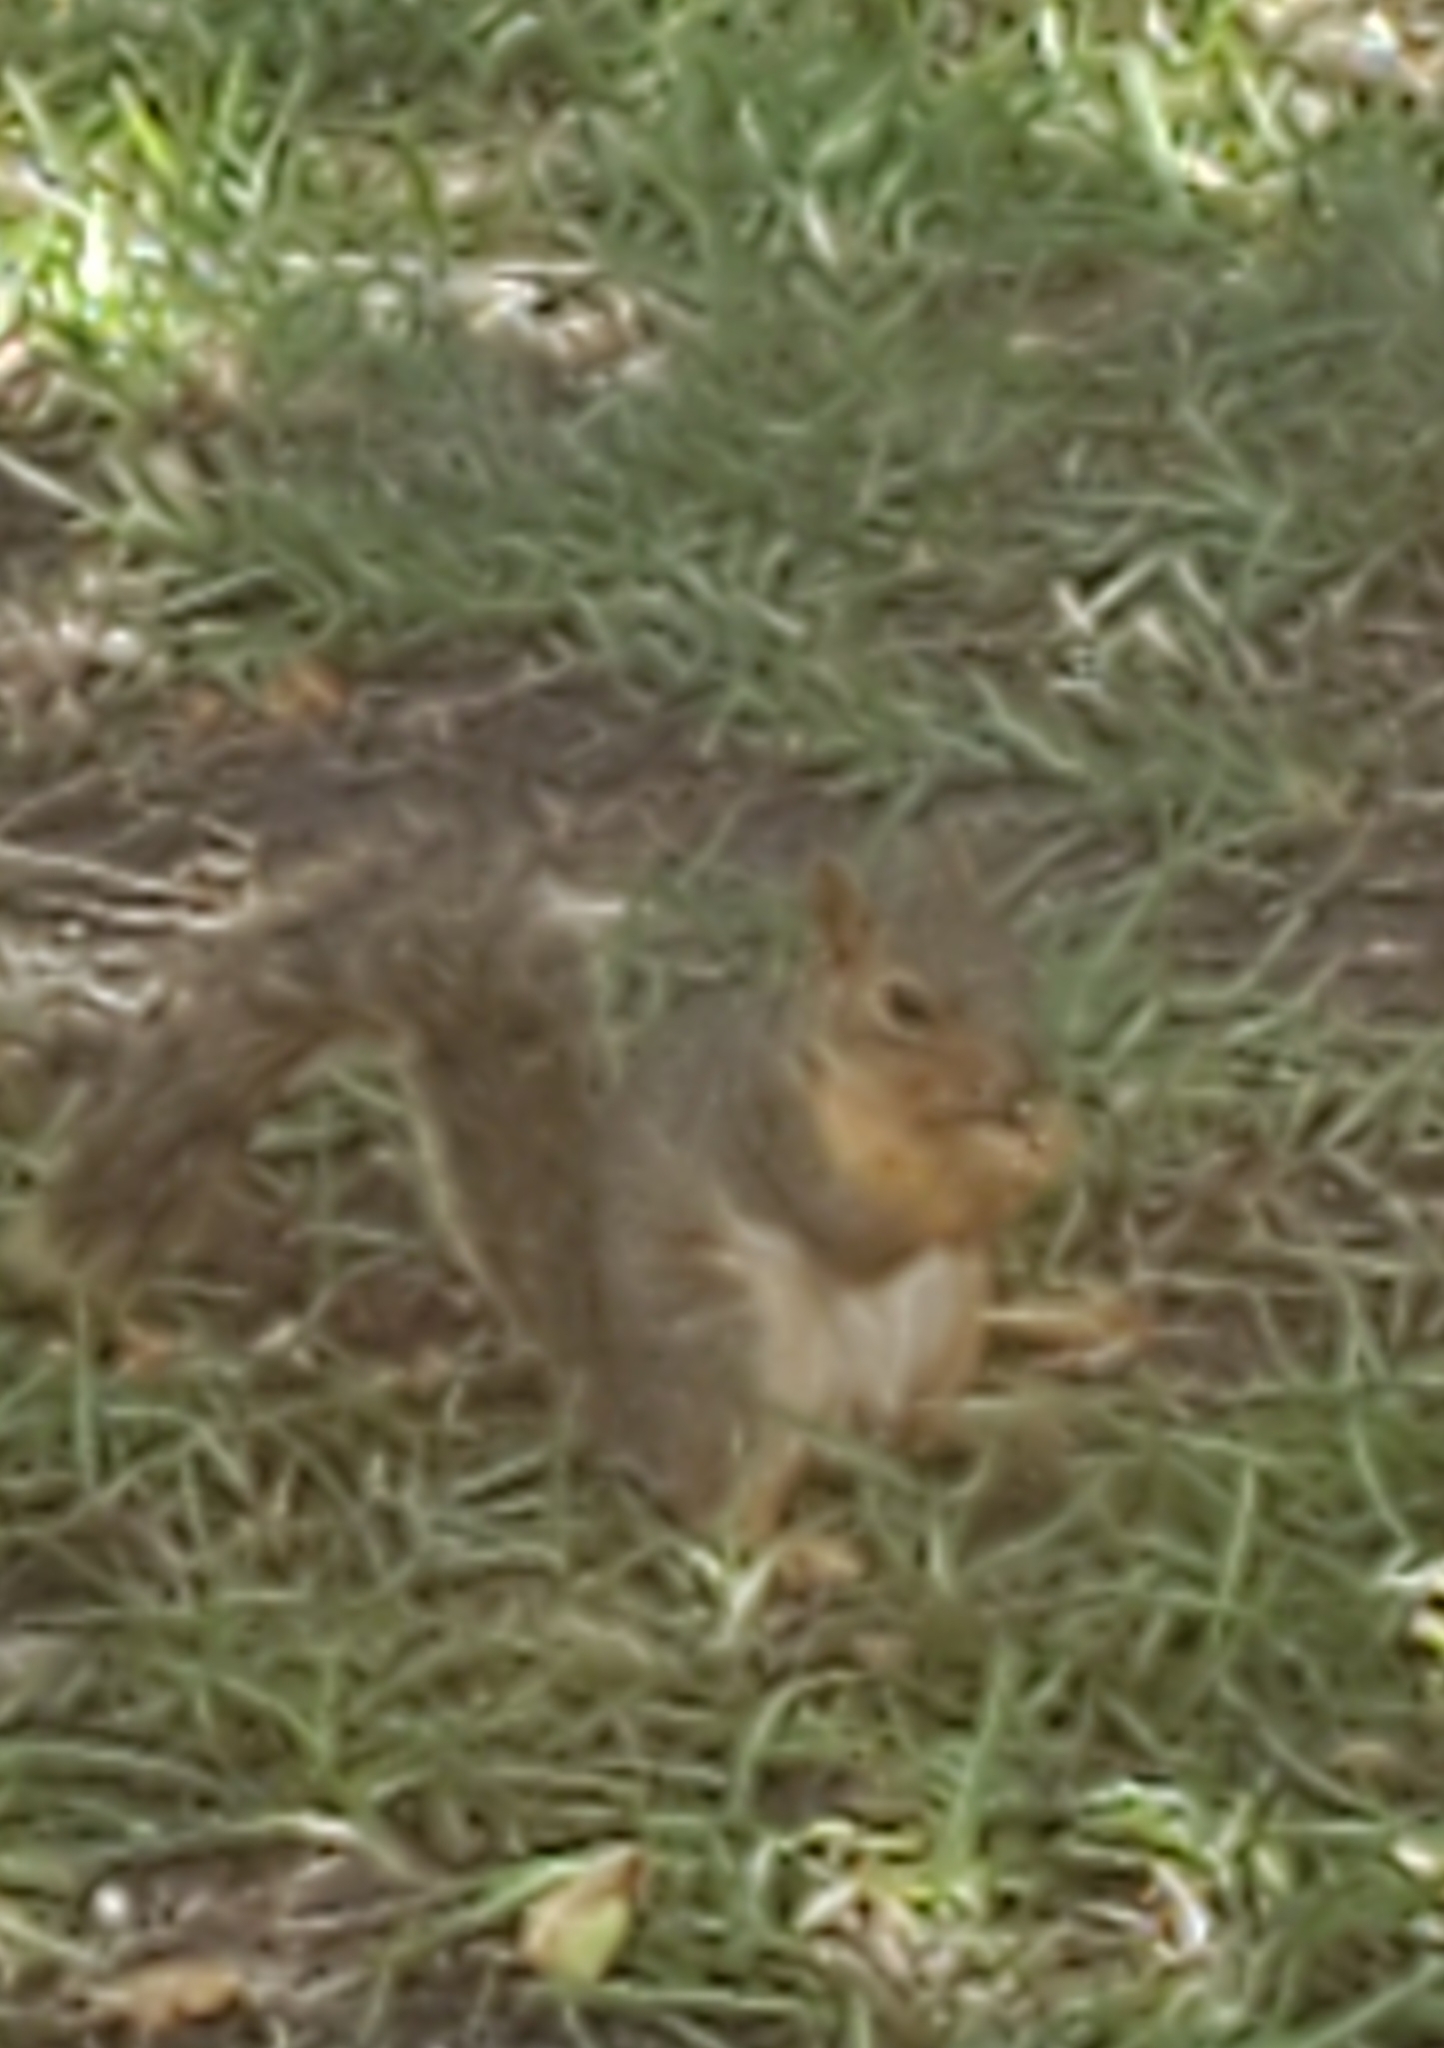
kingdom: Animalia
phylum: Chordata
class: Mammalia
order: Rodentia
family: Sciuridae
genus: Sciurus
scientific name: Sciurus niger
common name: Fox squirrel
